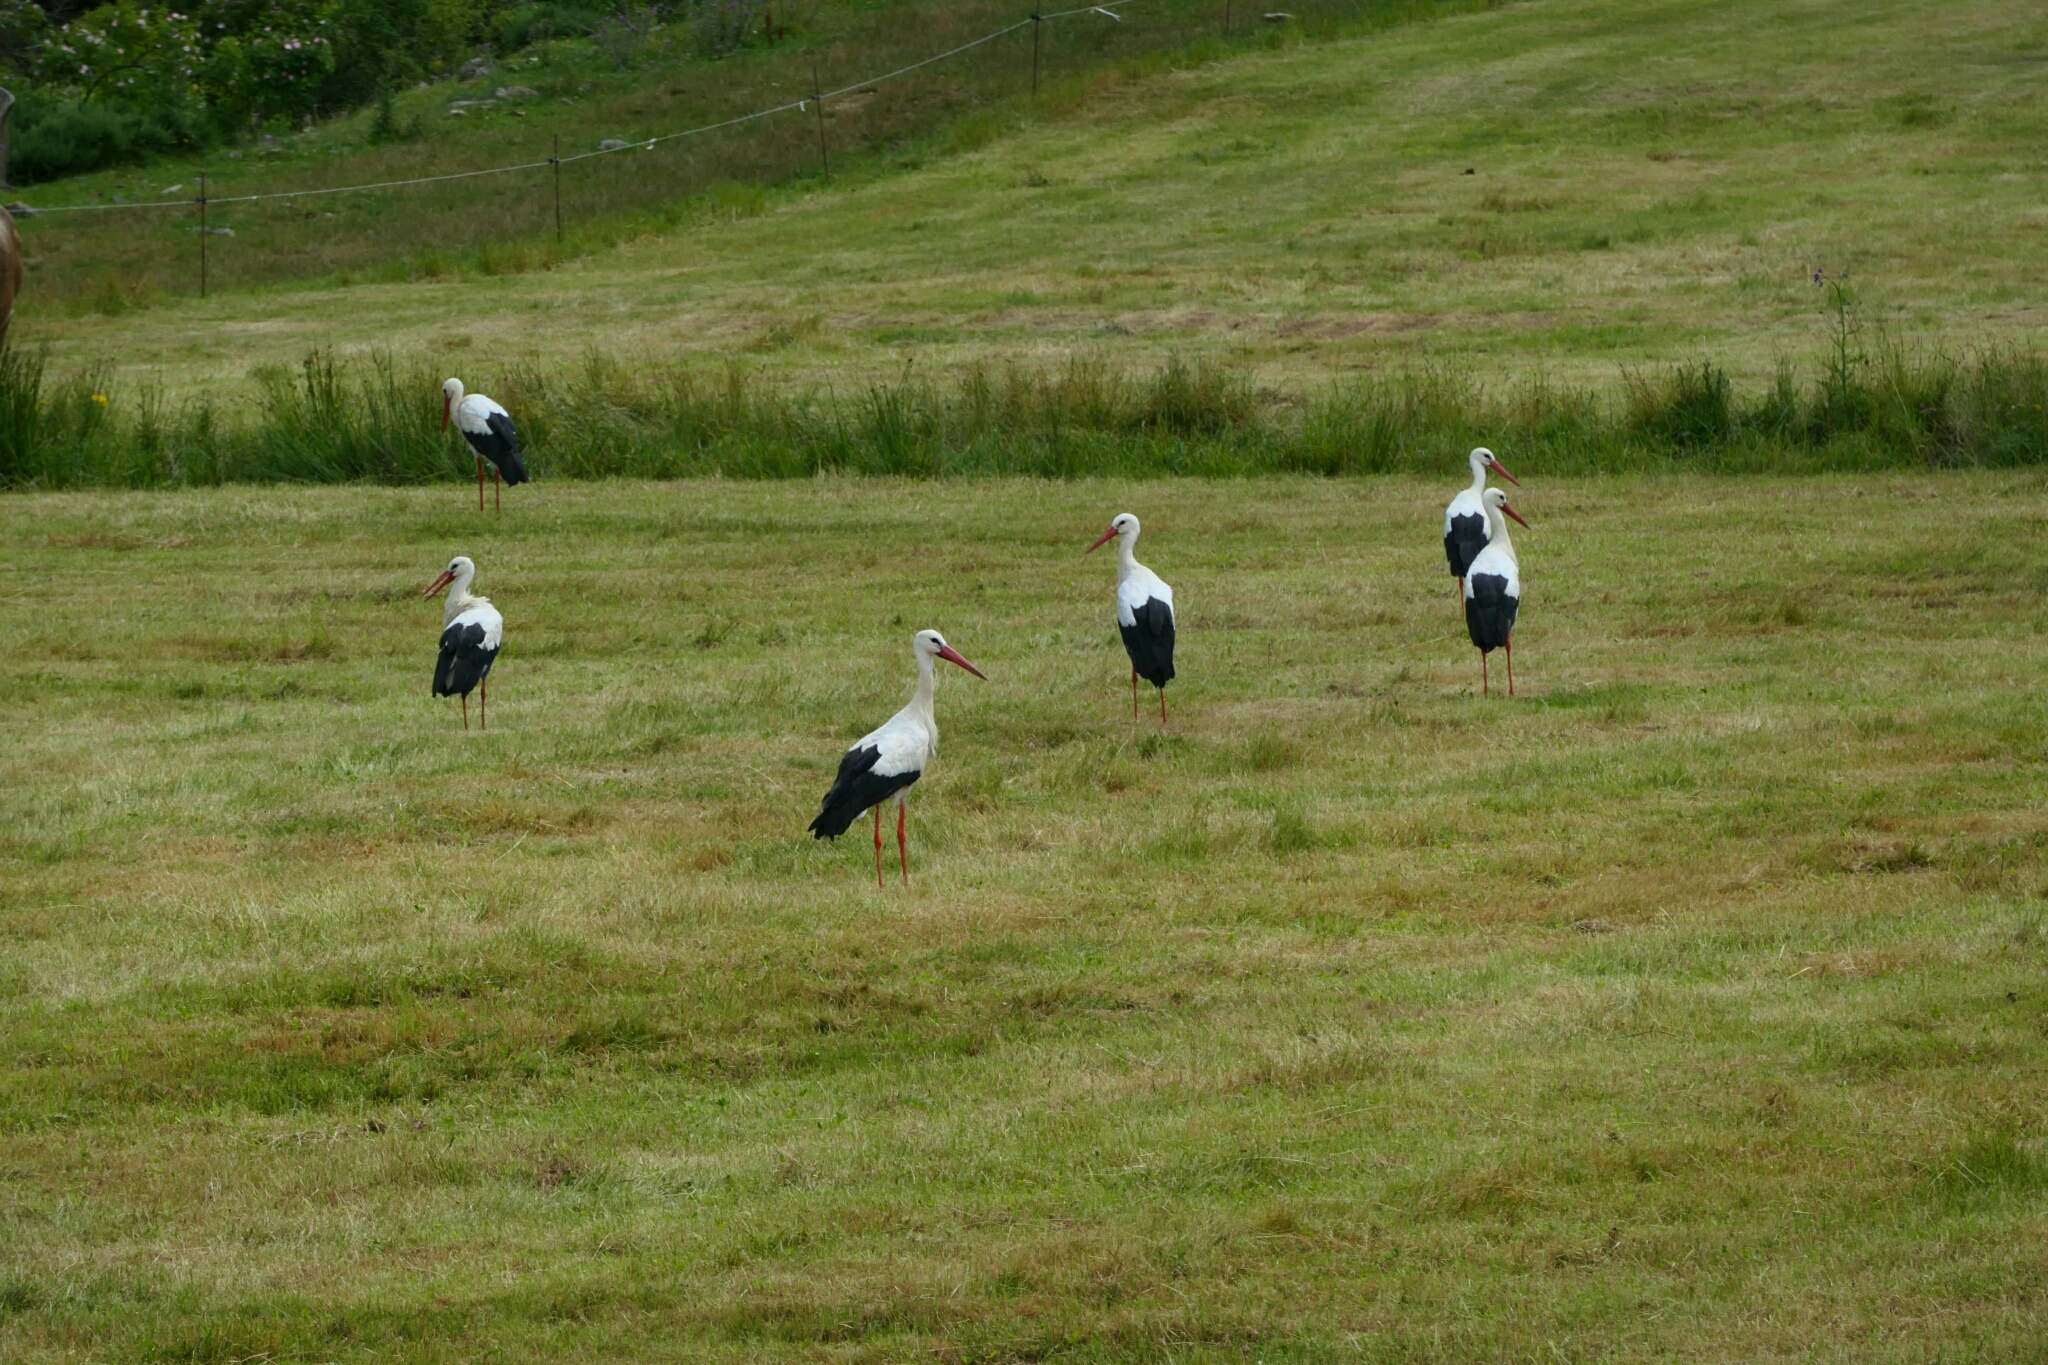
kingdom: Animalia
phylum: Chordata
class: Aves
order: Ciconiiformes
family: Ciconiidae
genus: Ciconia
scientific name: Ciconia ciconia
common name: White stork
